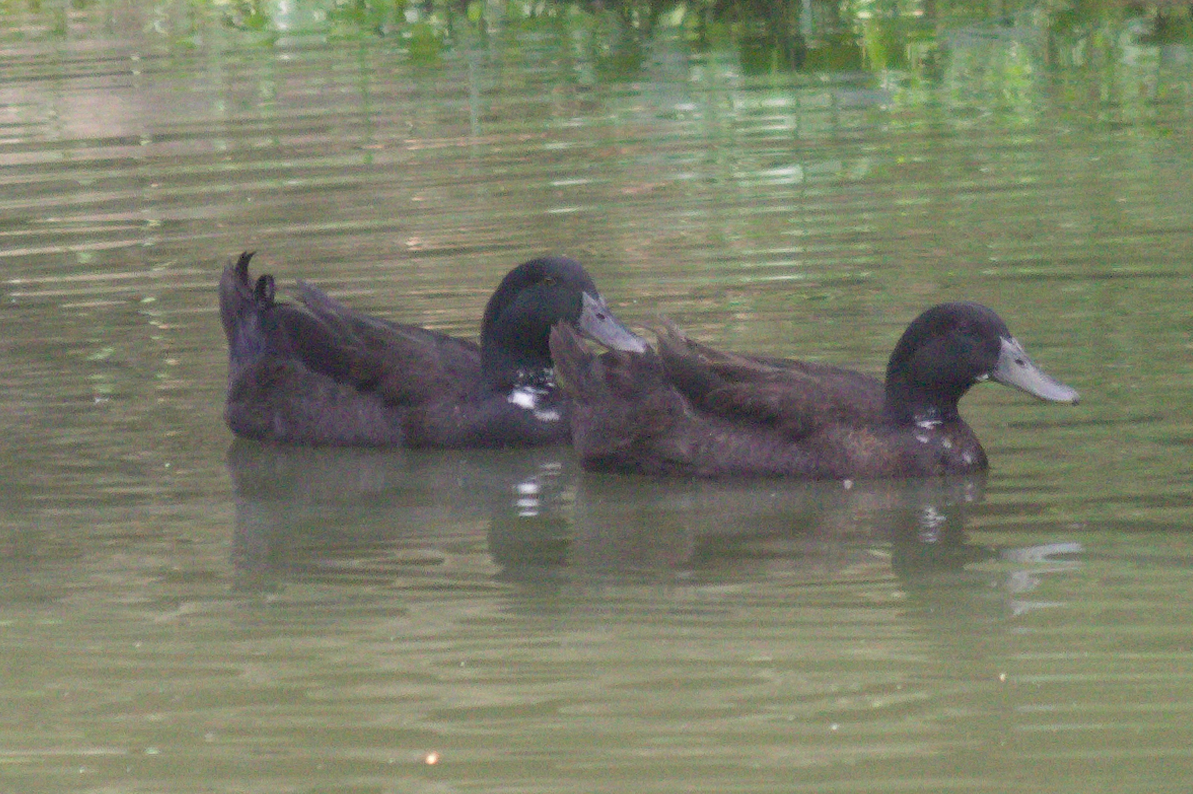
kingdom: Animalia
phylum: Chordata
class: Aves
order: Anseriformes
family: Anatidae
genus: Anas
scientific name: Anas platyrhynchos
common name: Mallard
